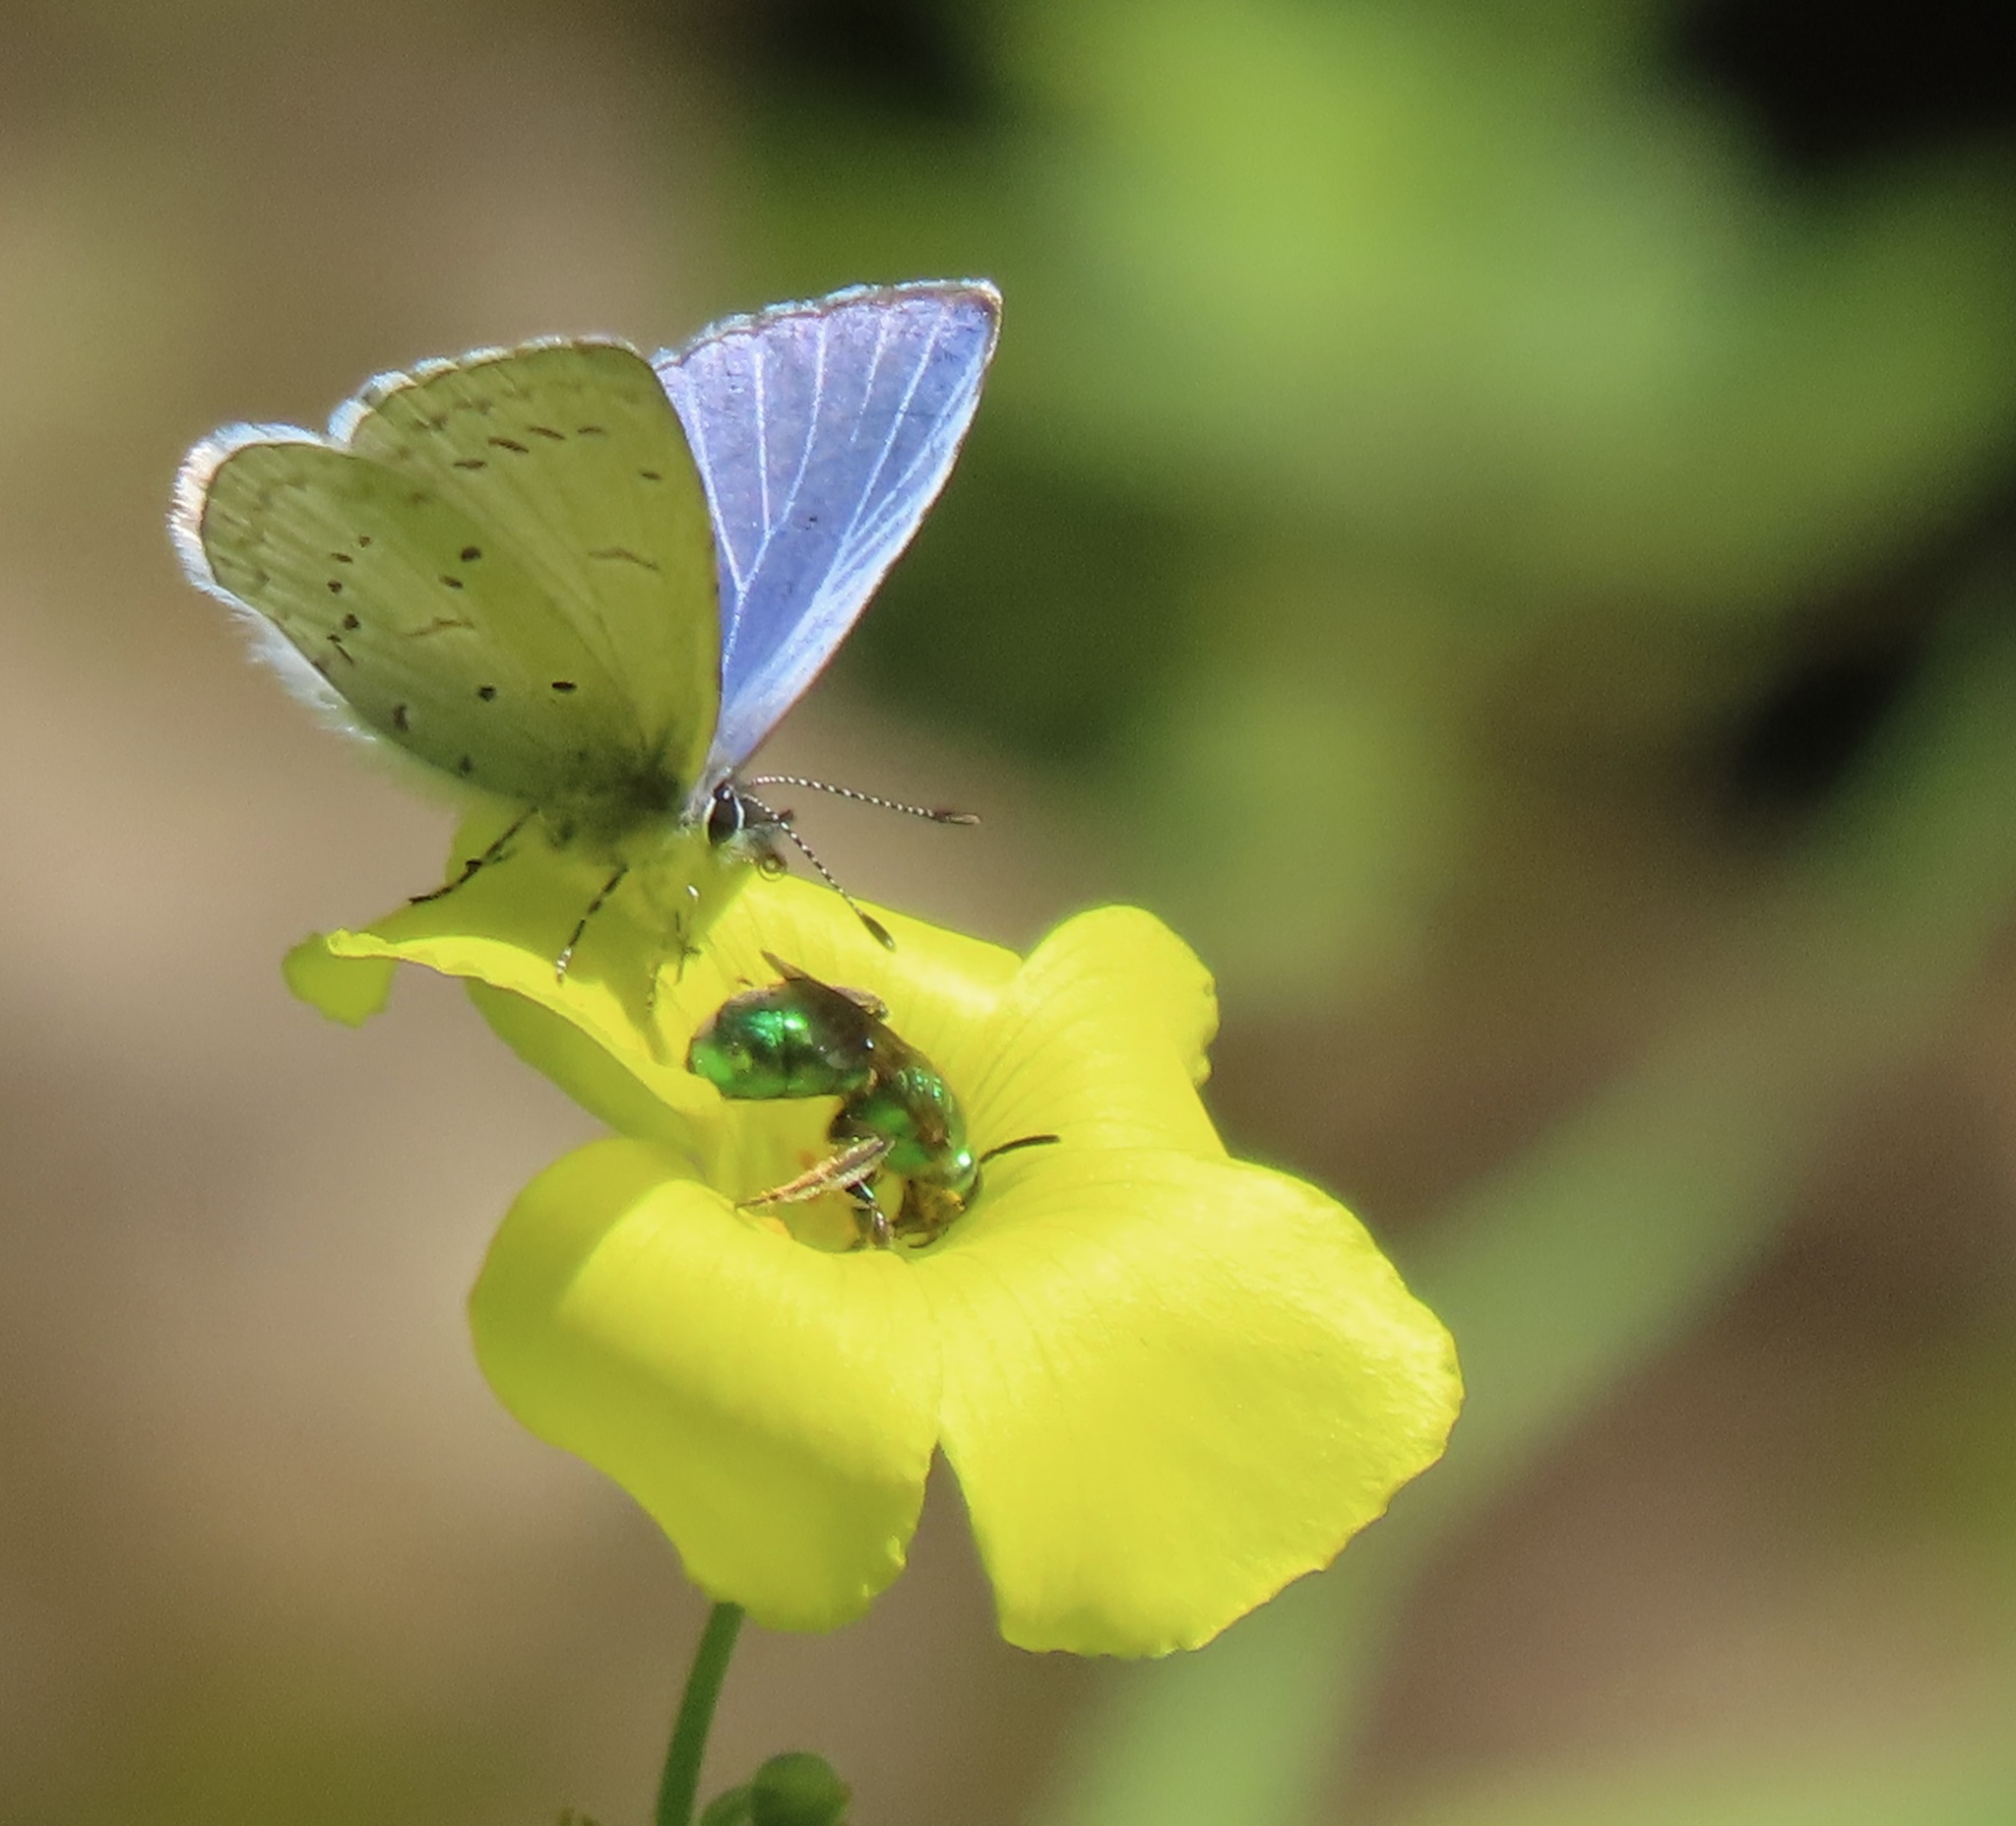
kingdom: Animalia
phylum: Arthropoda
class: Insecta
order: Lepidoptera
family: Lycaenidae
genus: Celastrina
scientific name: Celastrina ladon
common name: Spring azure
